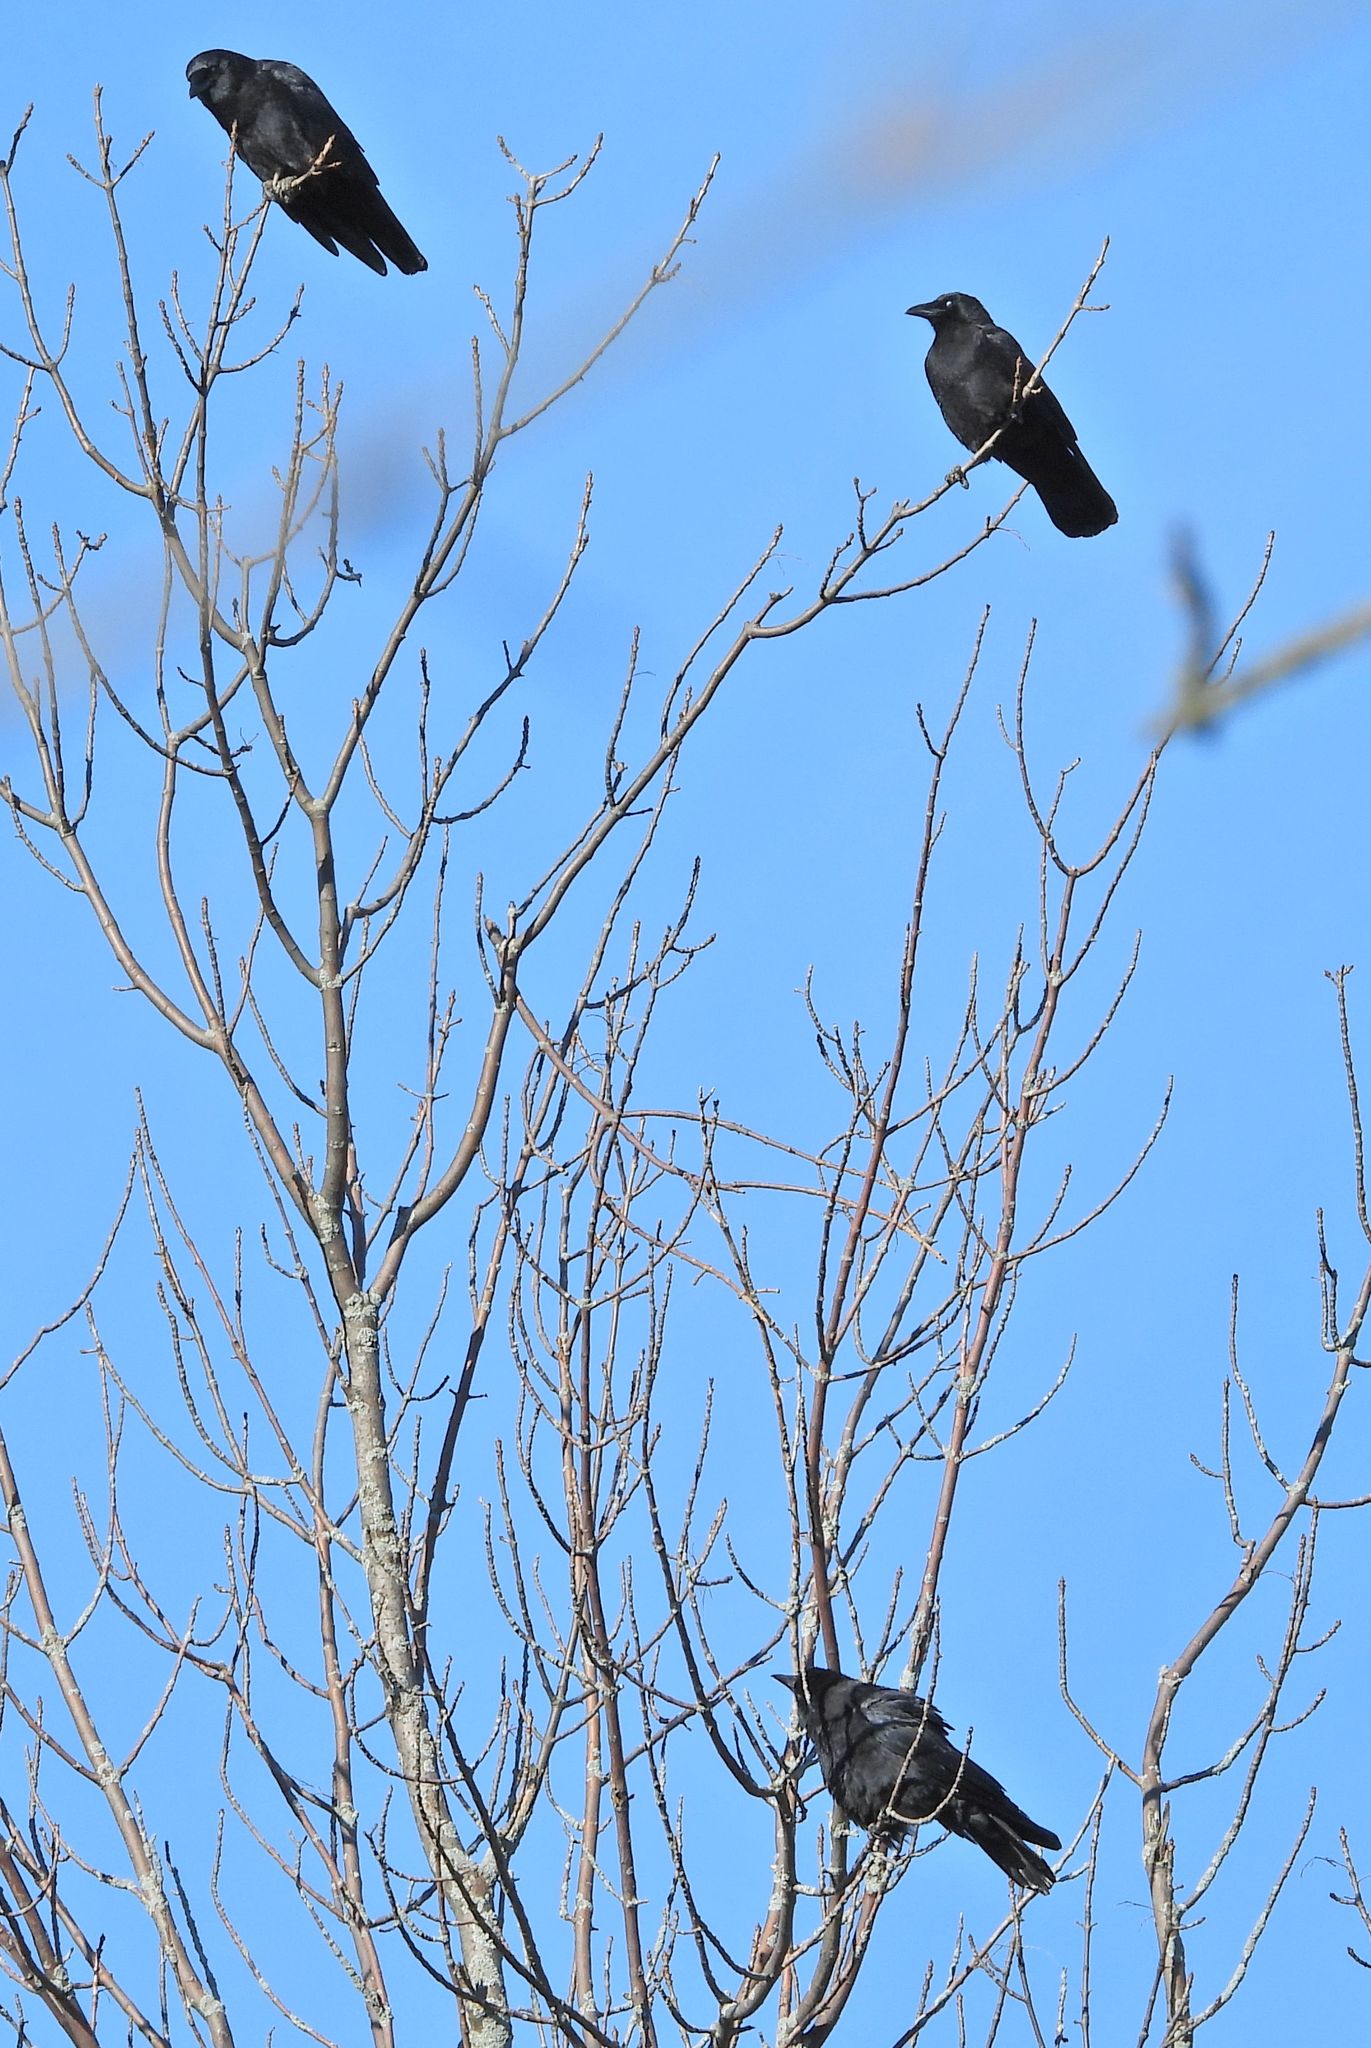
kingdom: Animalia
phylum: Chordata
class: Aves
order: Passeriformes
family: Corvidae
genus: Corvus
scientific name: Corvus brachyrhynchos
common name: American crow
